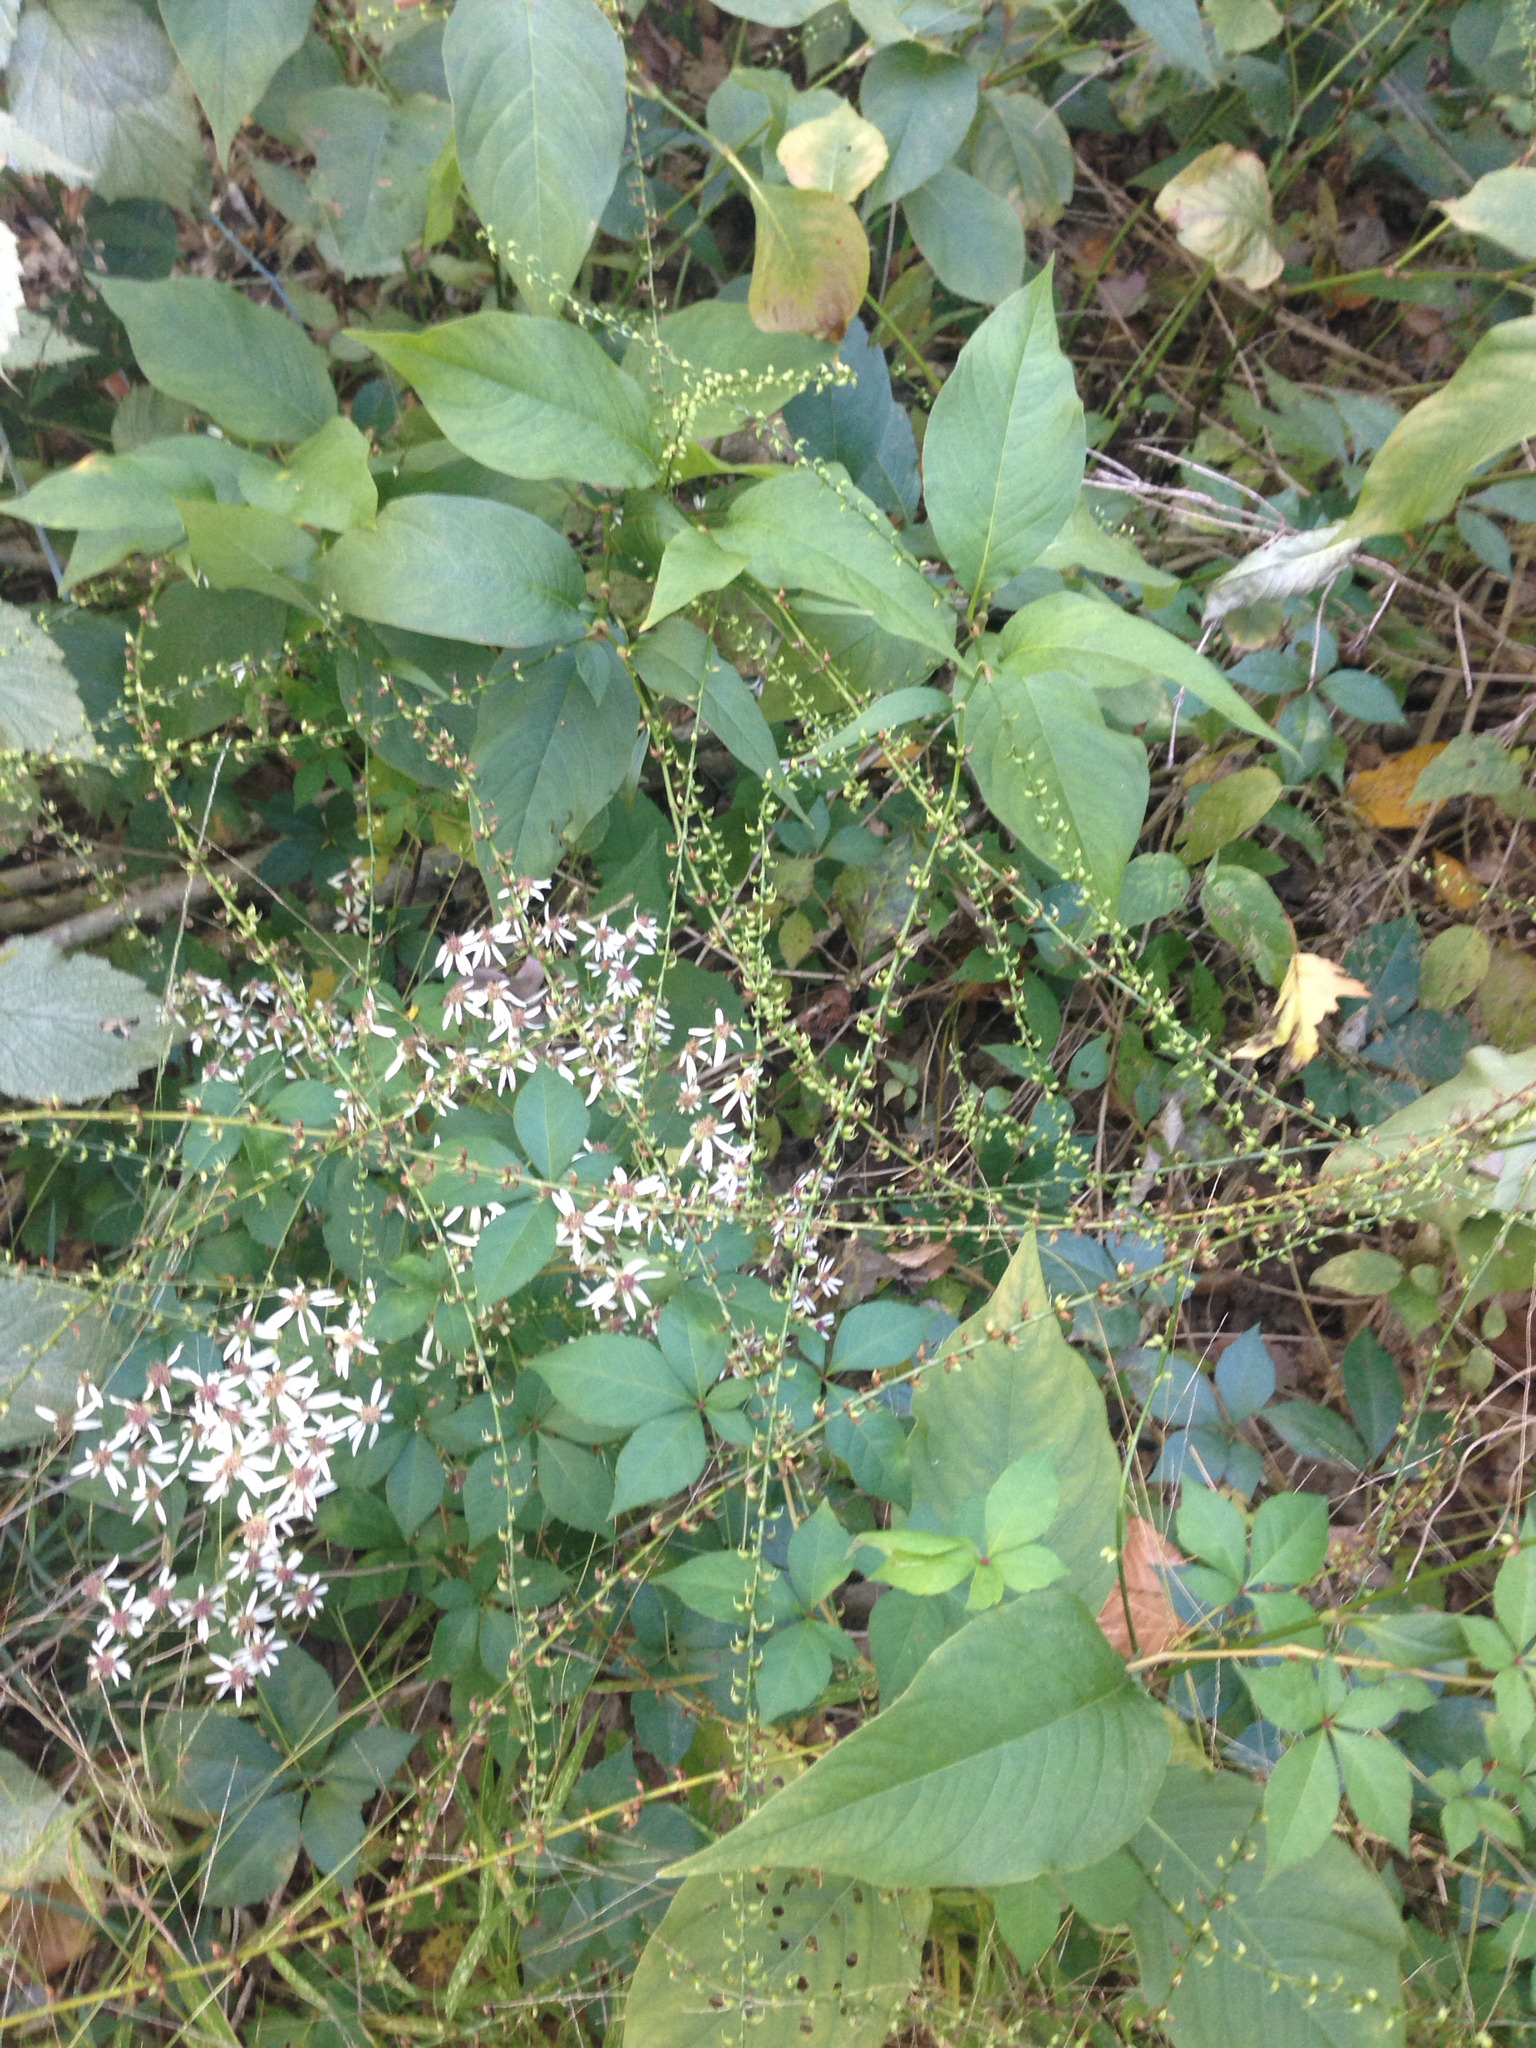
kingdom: Plantae
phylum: Tracheophyta
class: Magnoliopsida
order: Caryophyllales
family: Polygonaceae
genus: Persicaria
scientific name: Persicaria virginiana
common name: Jumpseed
